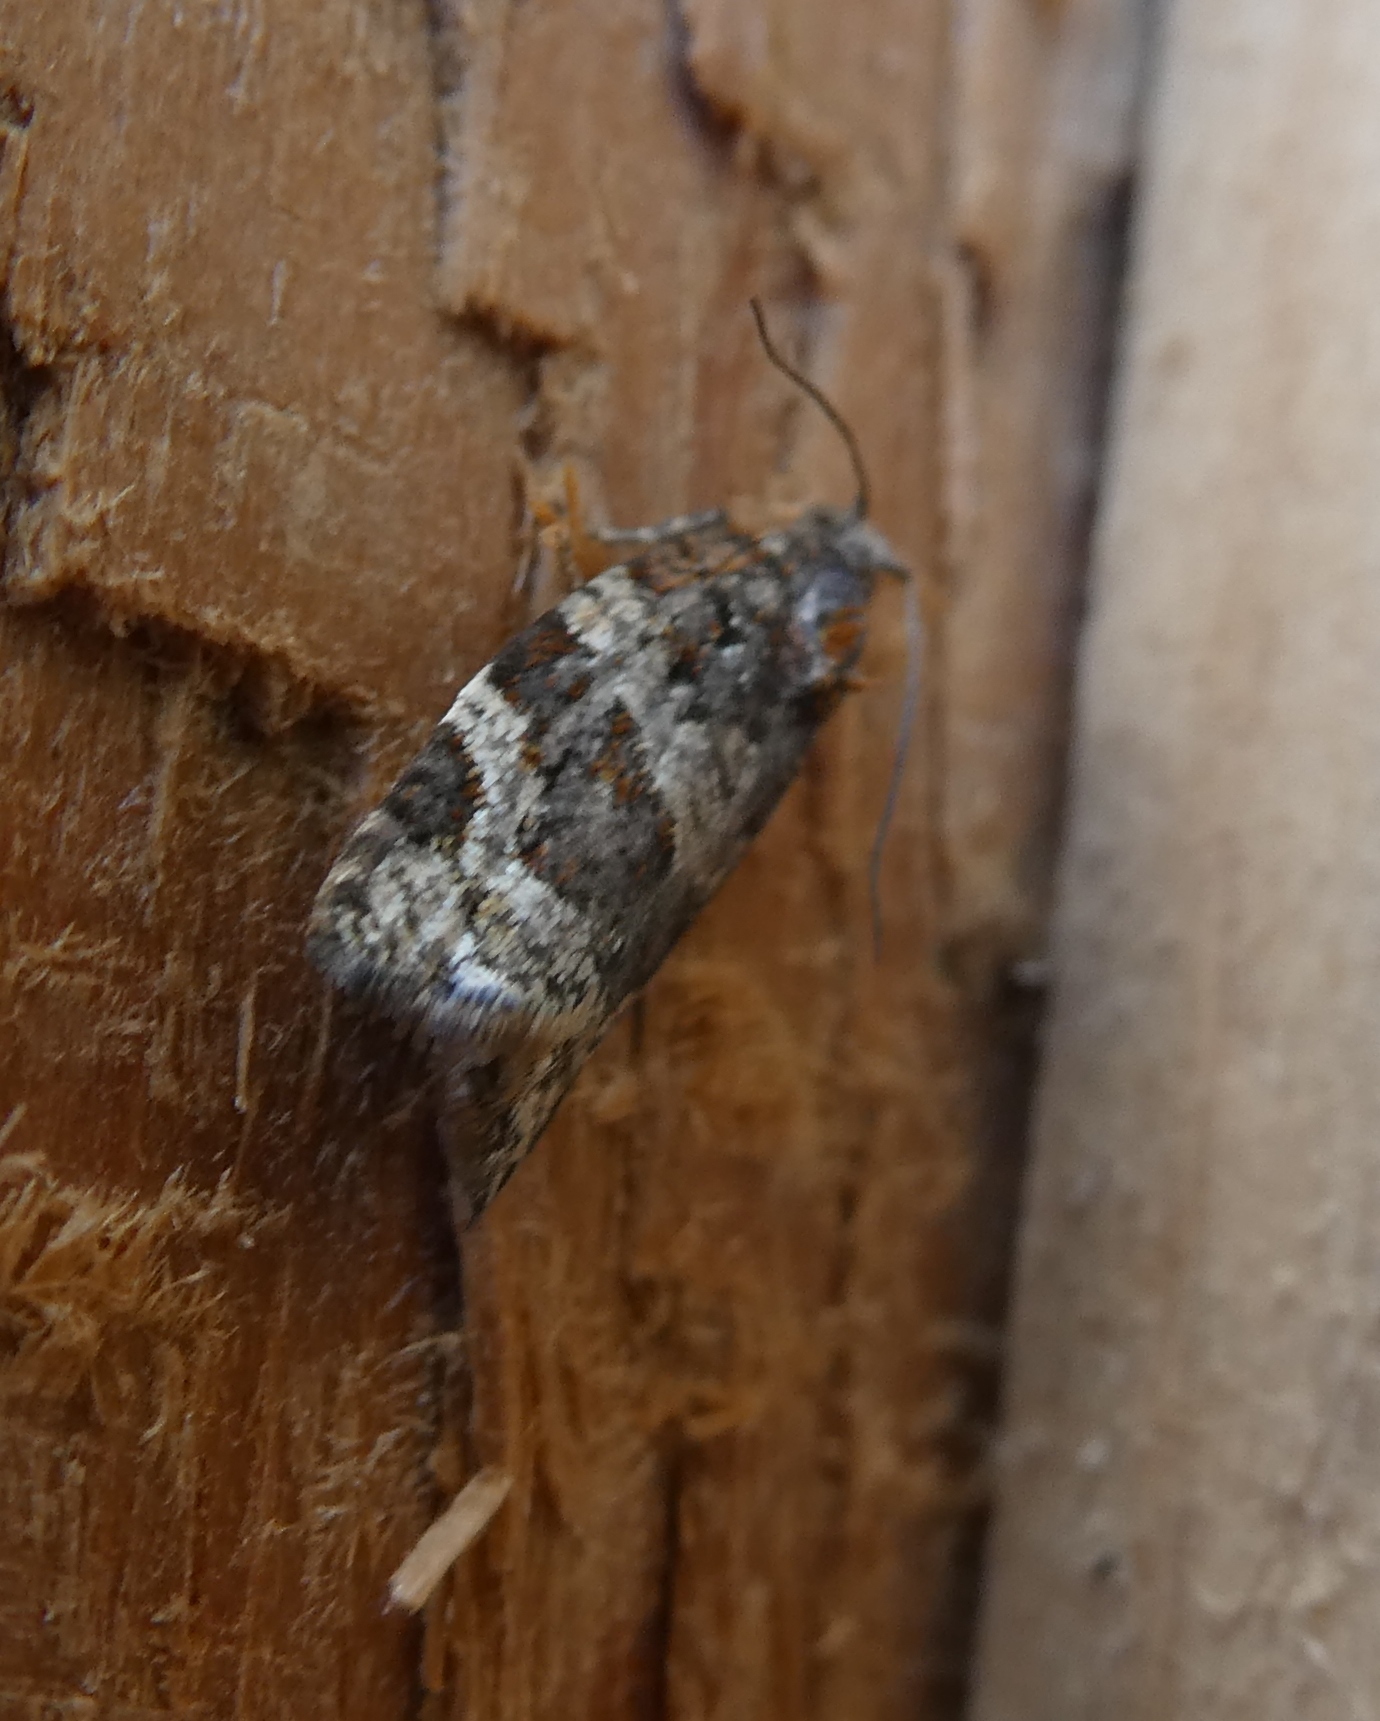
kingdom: Animalia
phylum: Arthropoda
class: Insecta
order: Lepidoptera
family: Tortricidae
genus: Argyrotaenia
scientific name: Argyrotaenia ljungiana
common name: Heather twist
